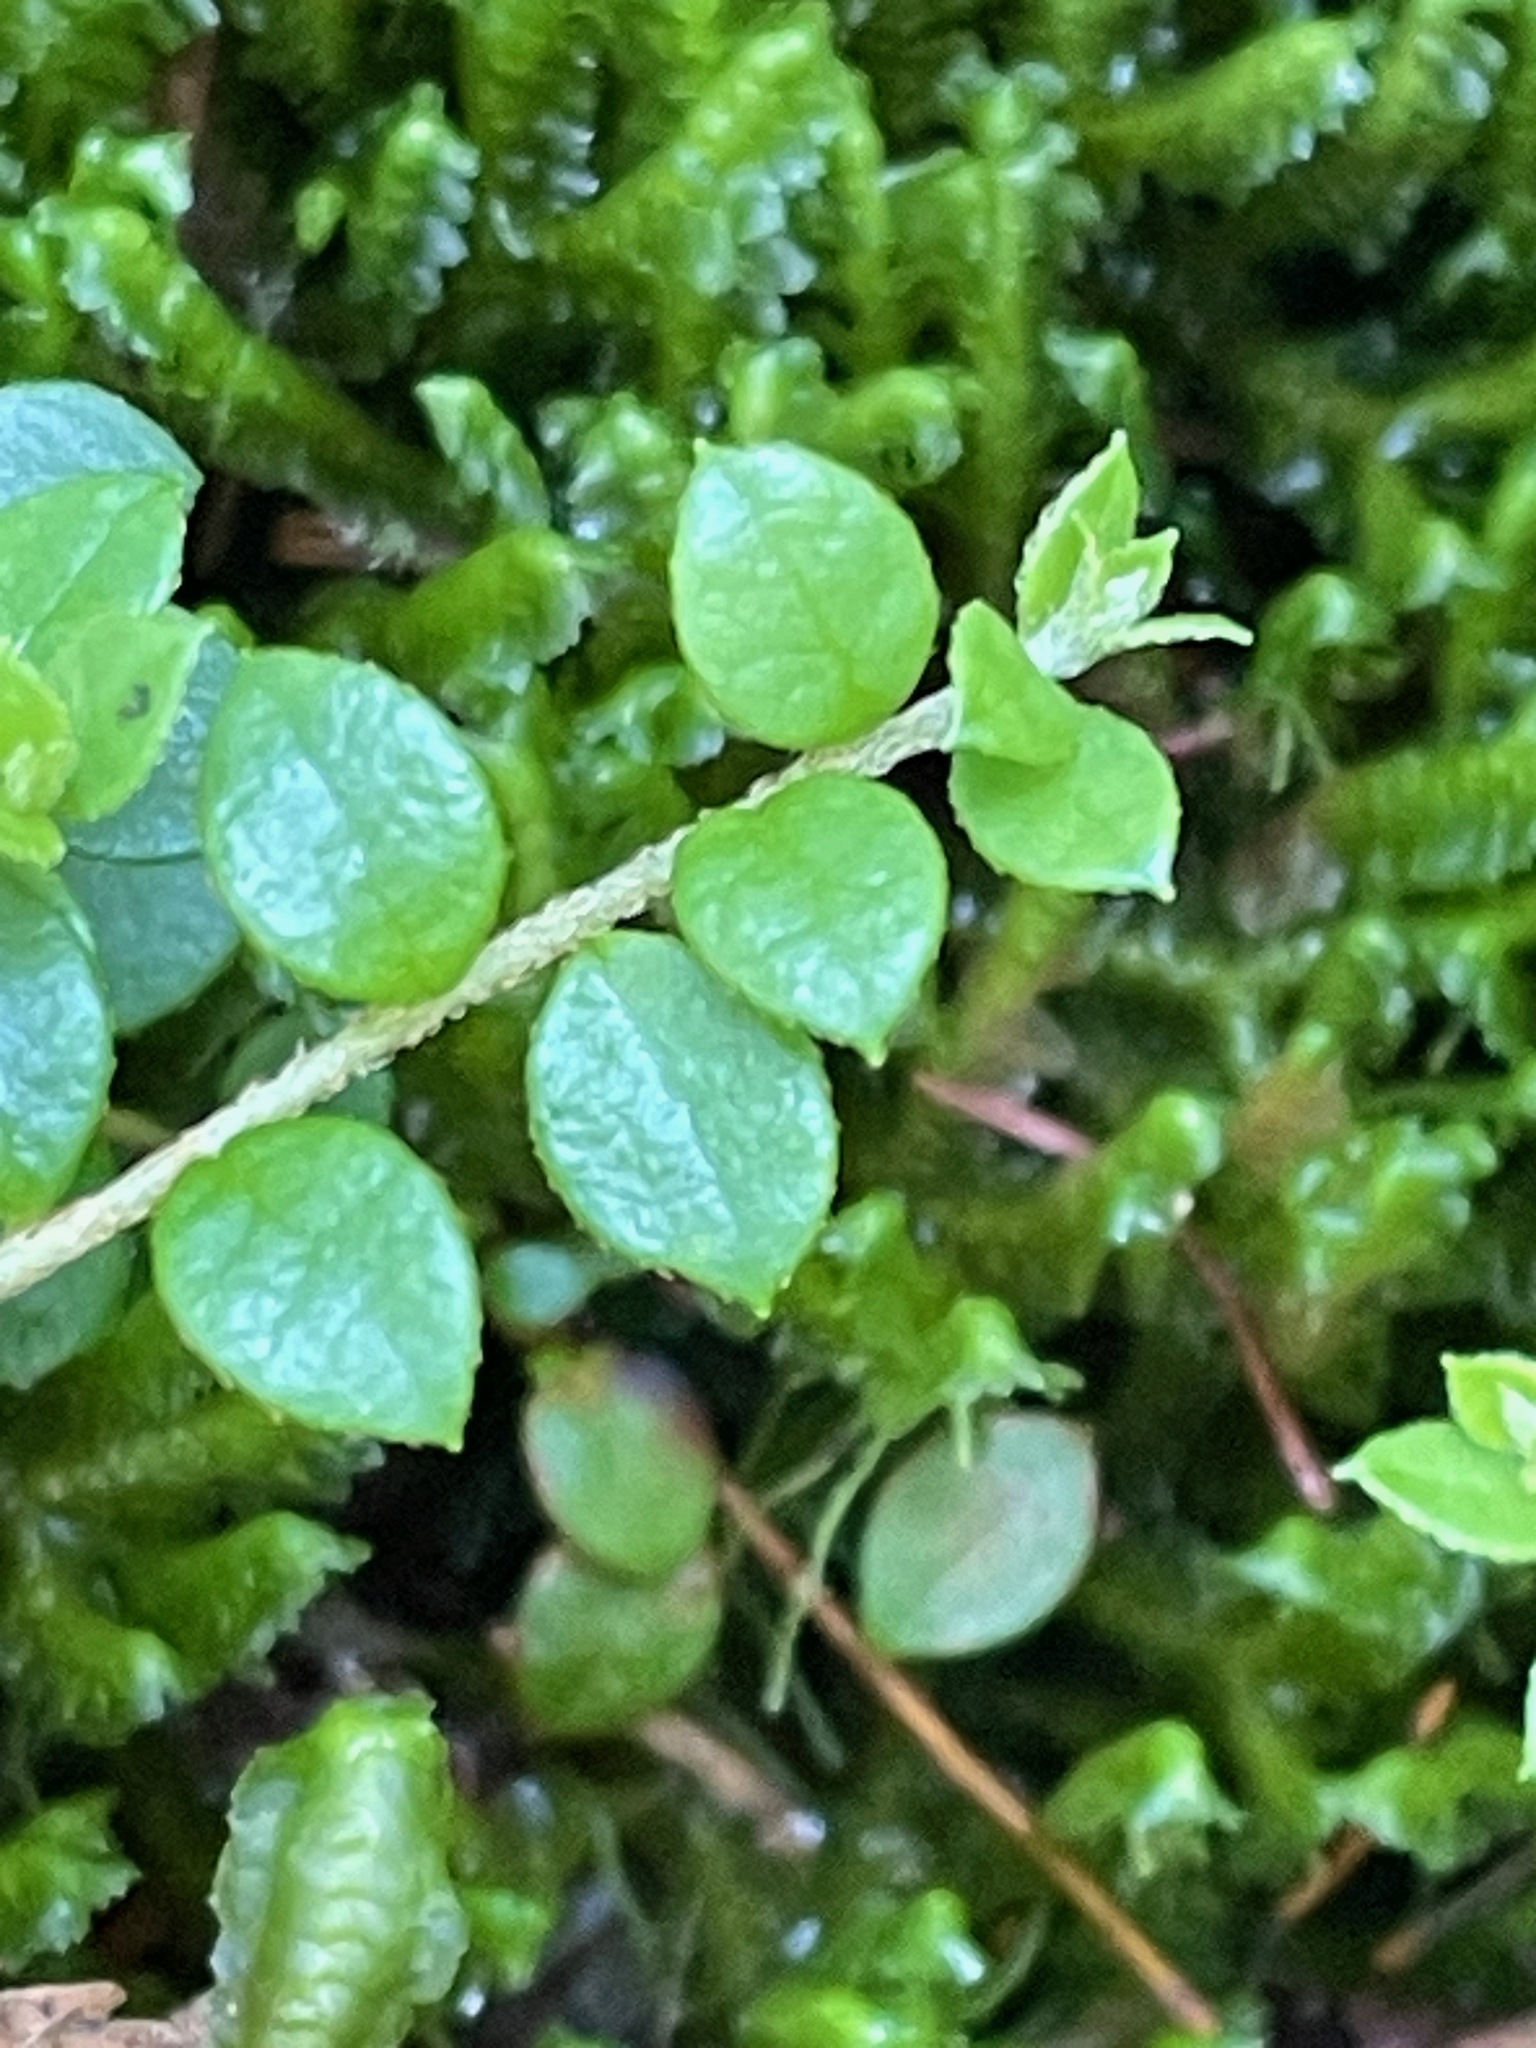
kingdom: Plantae
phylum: Tracheophyta
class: Magnoliopsida
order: Ericales
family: Ericaceae
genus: Gaultheria
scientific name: Gaultheria hispidula
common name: Cancer wintergreen
